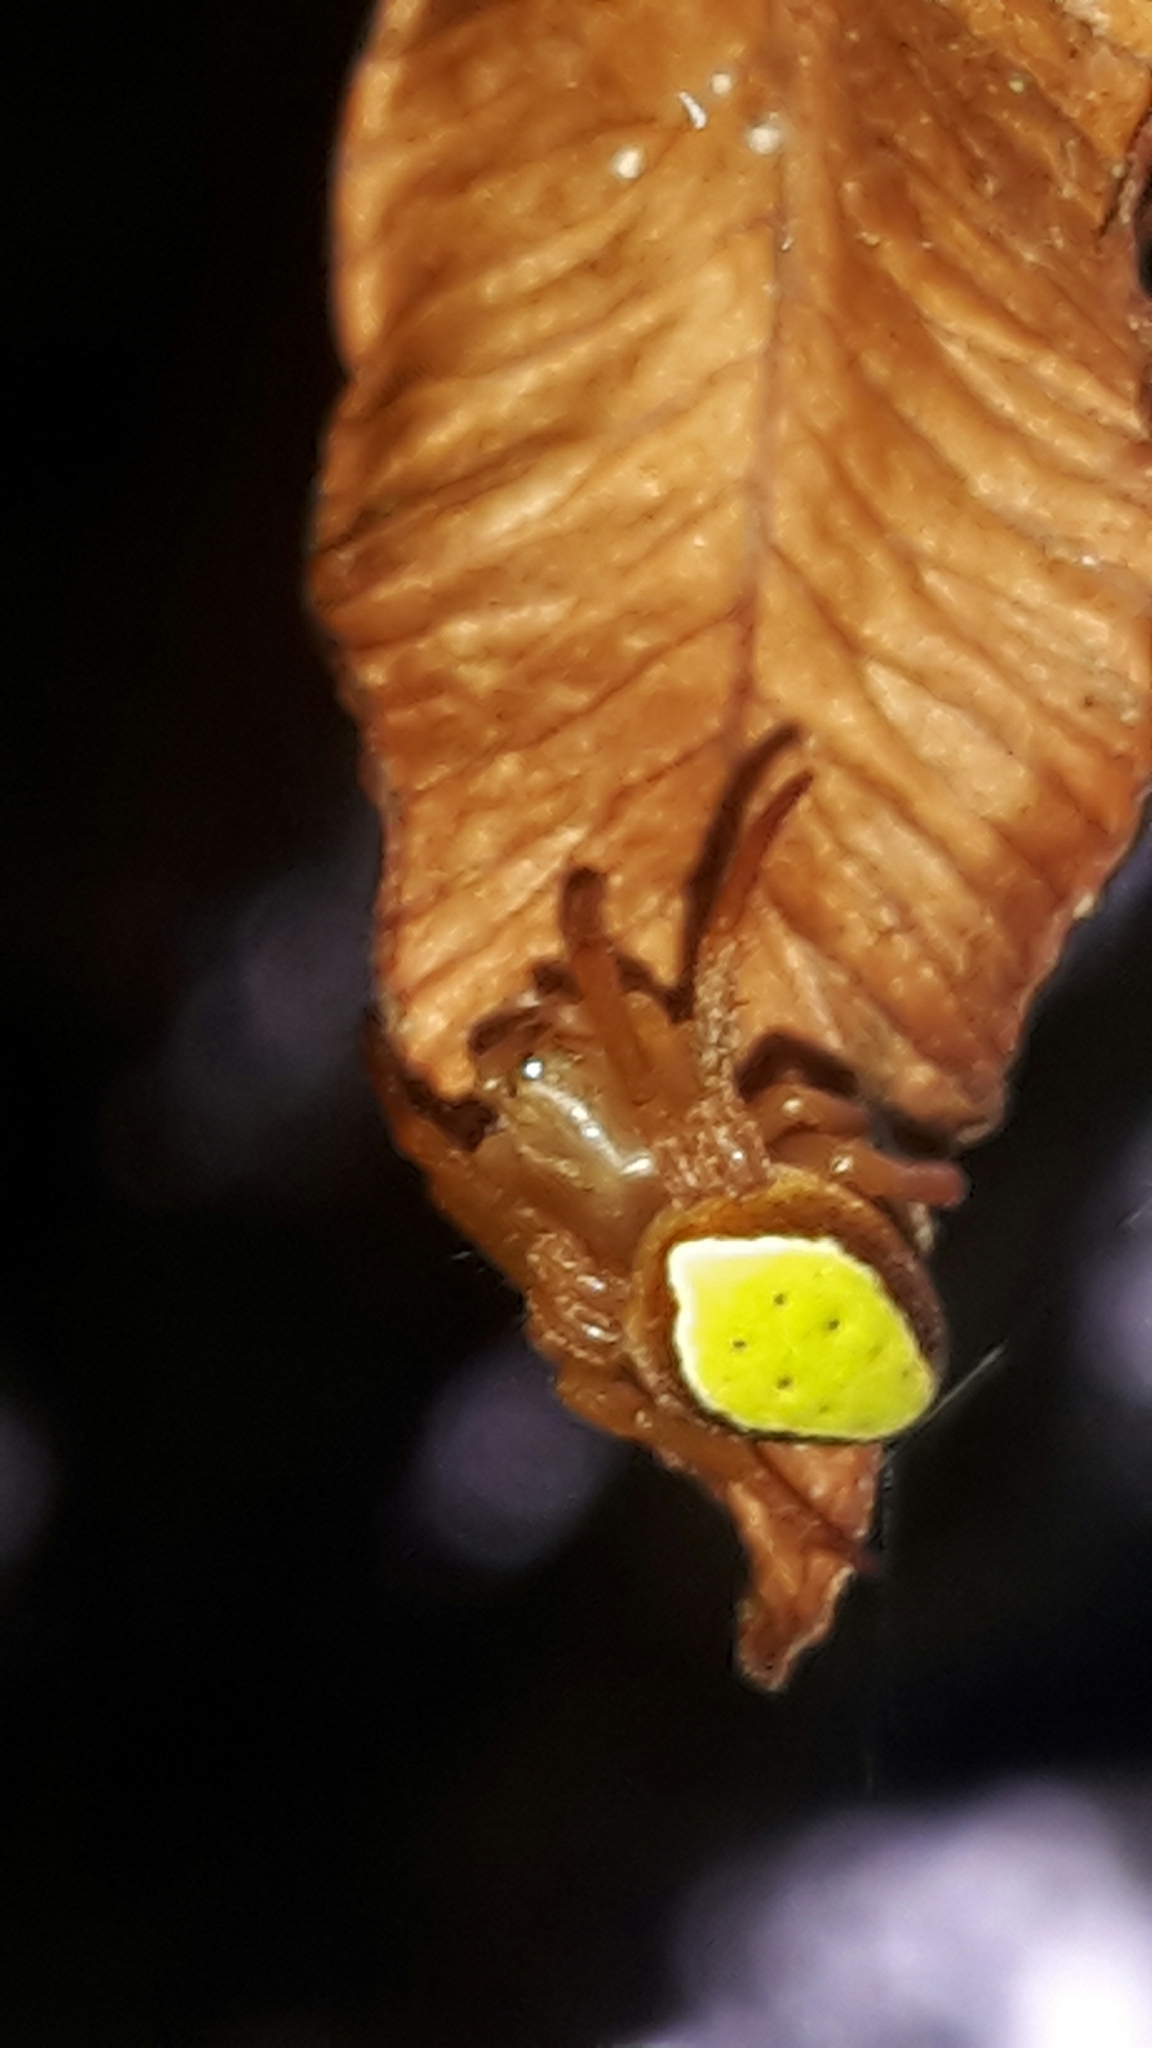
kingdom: Animalia
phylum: Arthropoda
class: Arachnida
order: Araneae
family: Araneidae
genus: Colaranea
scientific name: Colaranea viriditas
